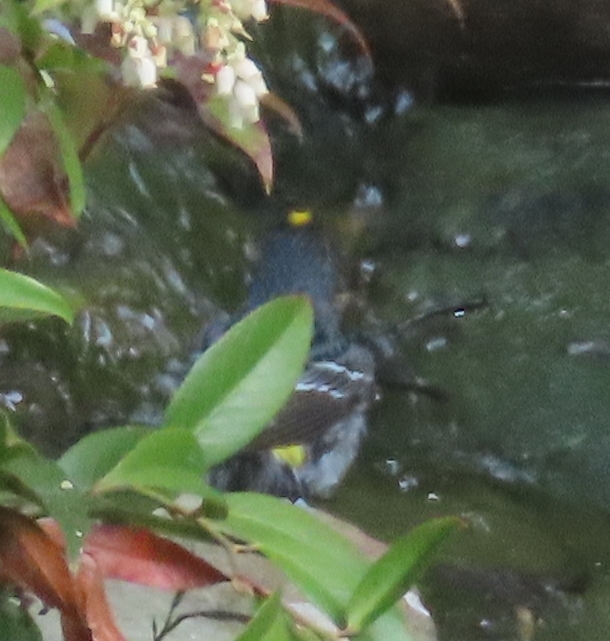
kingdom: Animalia
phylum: Chordata
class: Aves
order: Passeriformes
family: Parulidae
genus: Setophaga
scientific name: Setophaga coronata
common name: Myrtle warbler
